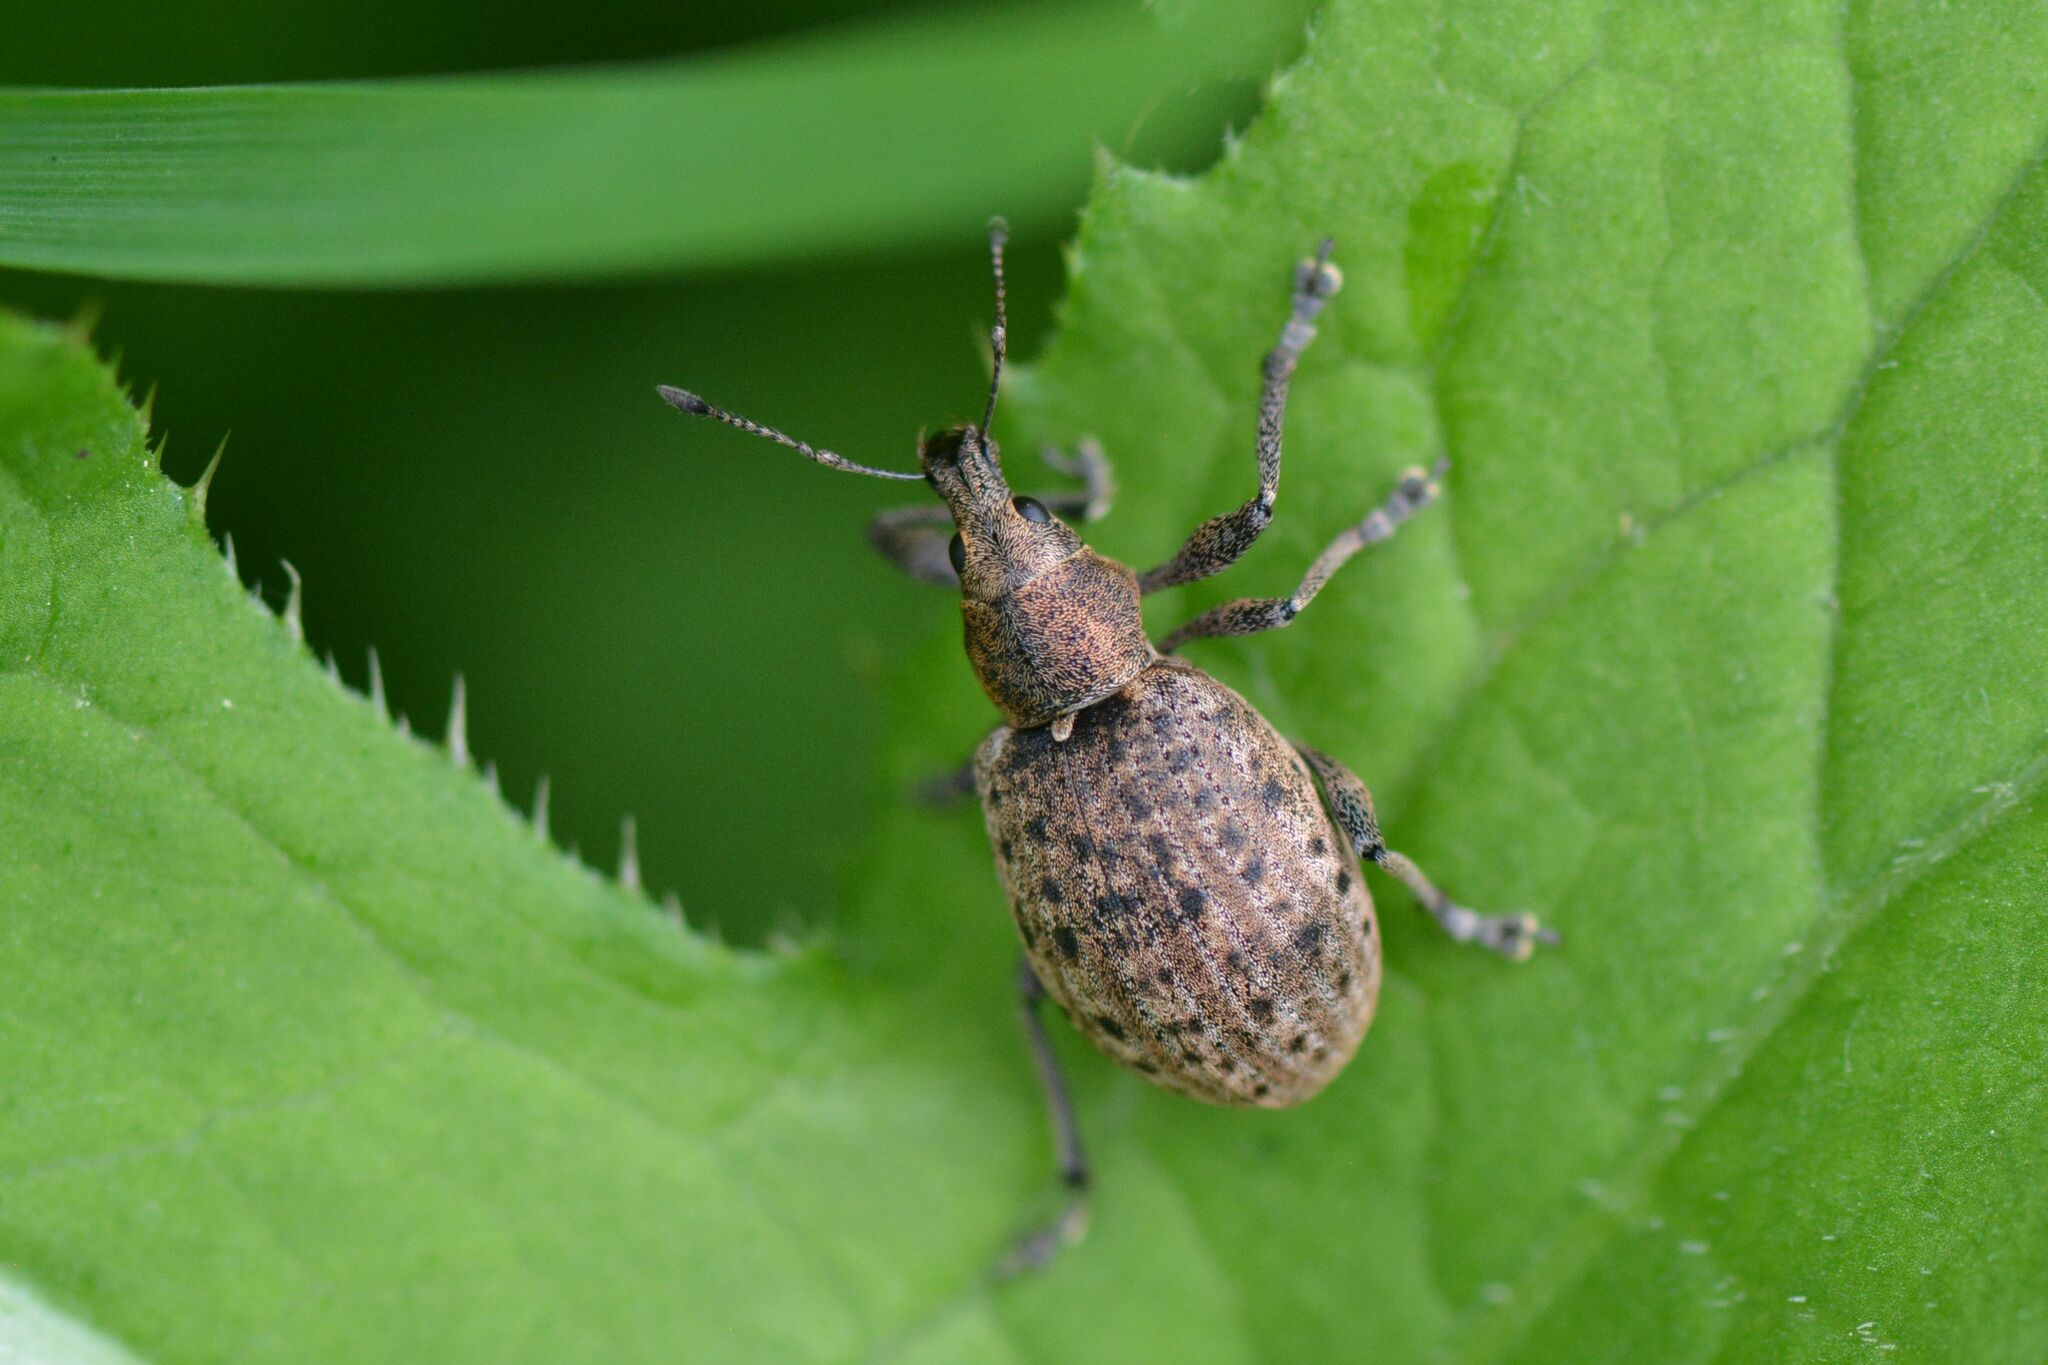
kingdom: Animalia
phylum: Arthropoda
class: Insecta
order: Coleoptera
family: Curculionidae
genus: Liophloeus
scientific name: Liophloeus tessulatus
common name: Weevil
